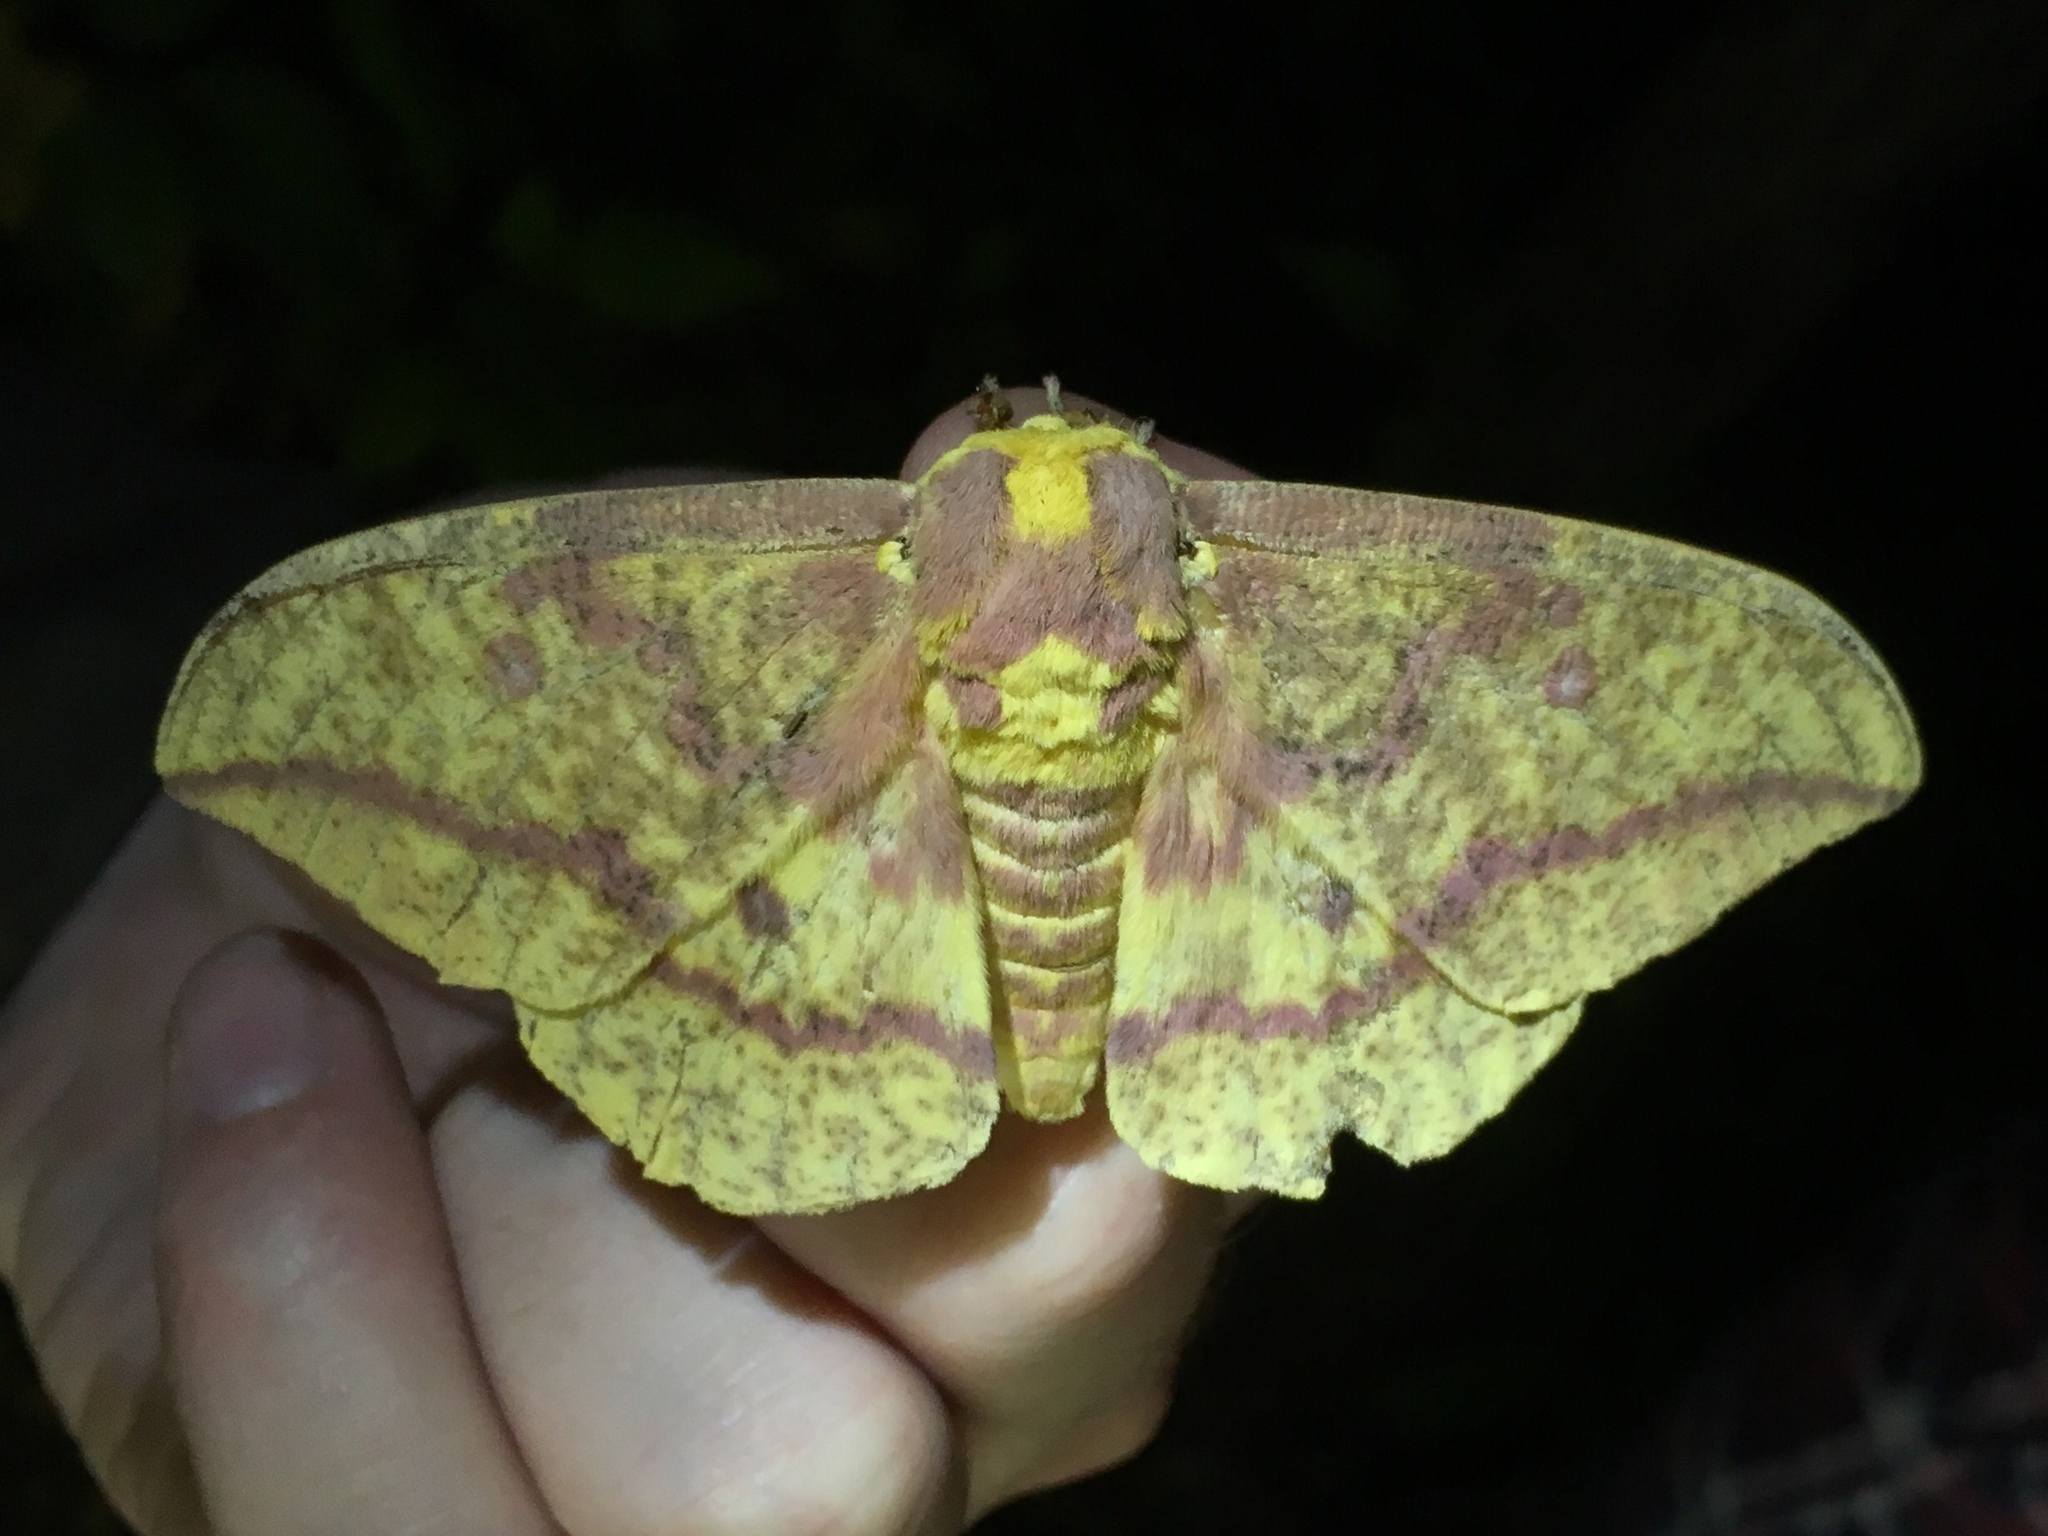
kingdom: Animalia
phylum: Arthropoda
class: Insecta
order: Lepidoptera
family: Saturniidae
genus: Eacles
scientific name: Eacles
